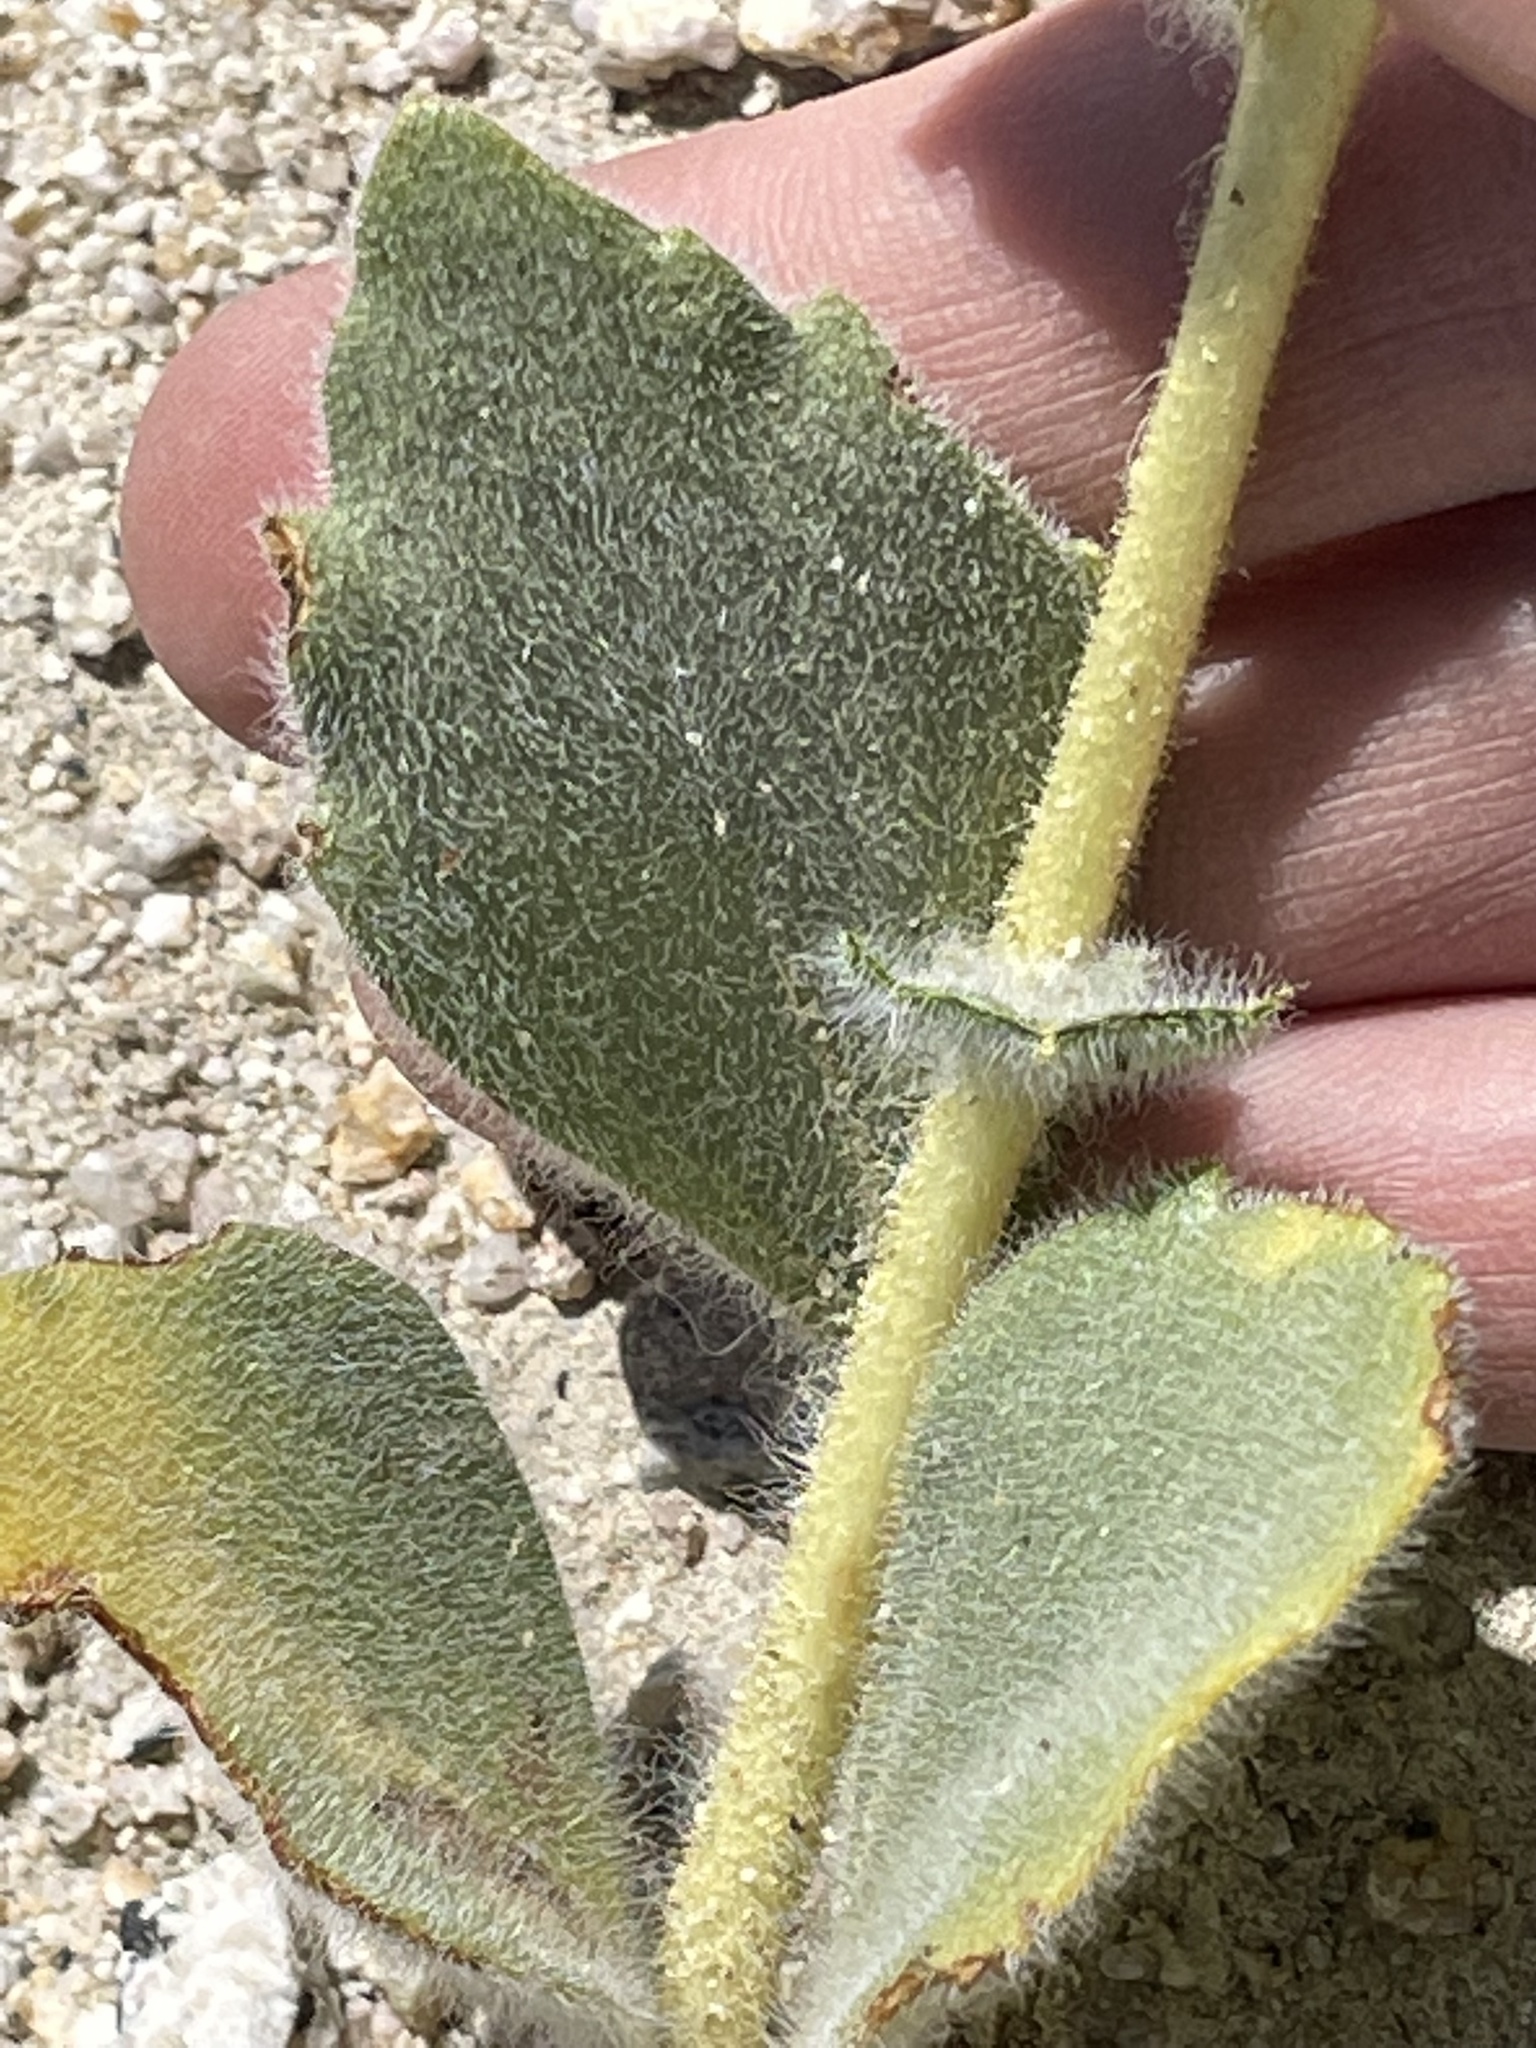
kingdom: Plantae
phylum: Tracheophyta
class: Magnoliopsida
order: Asterales
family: Asteraceae
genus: Geraea
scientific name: Geraea canescens
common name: Desert-gold
